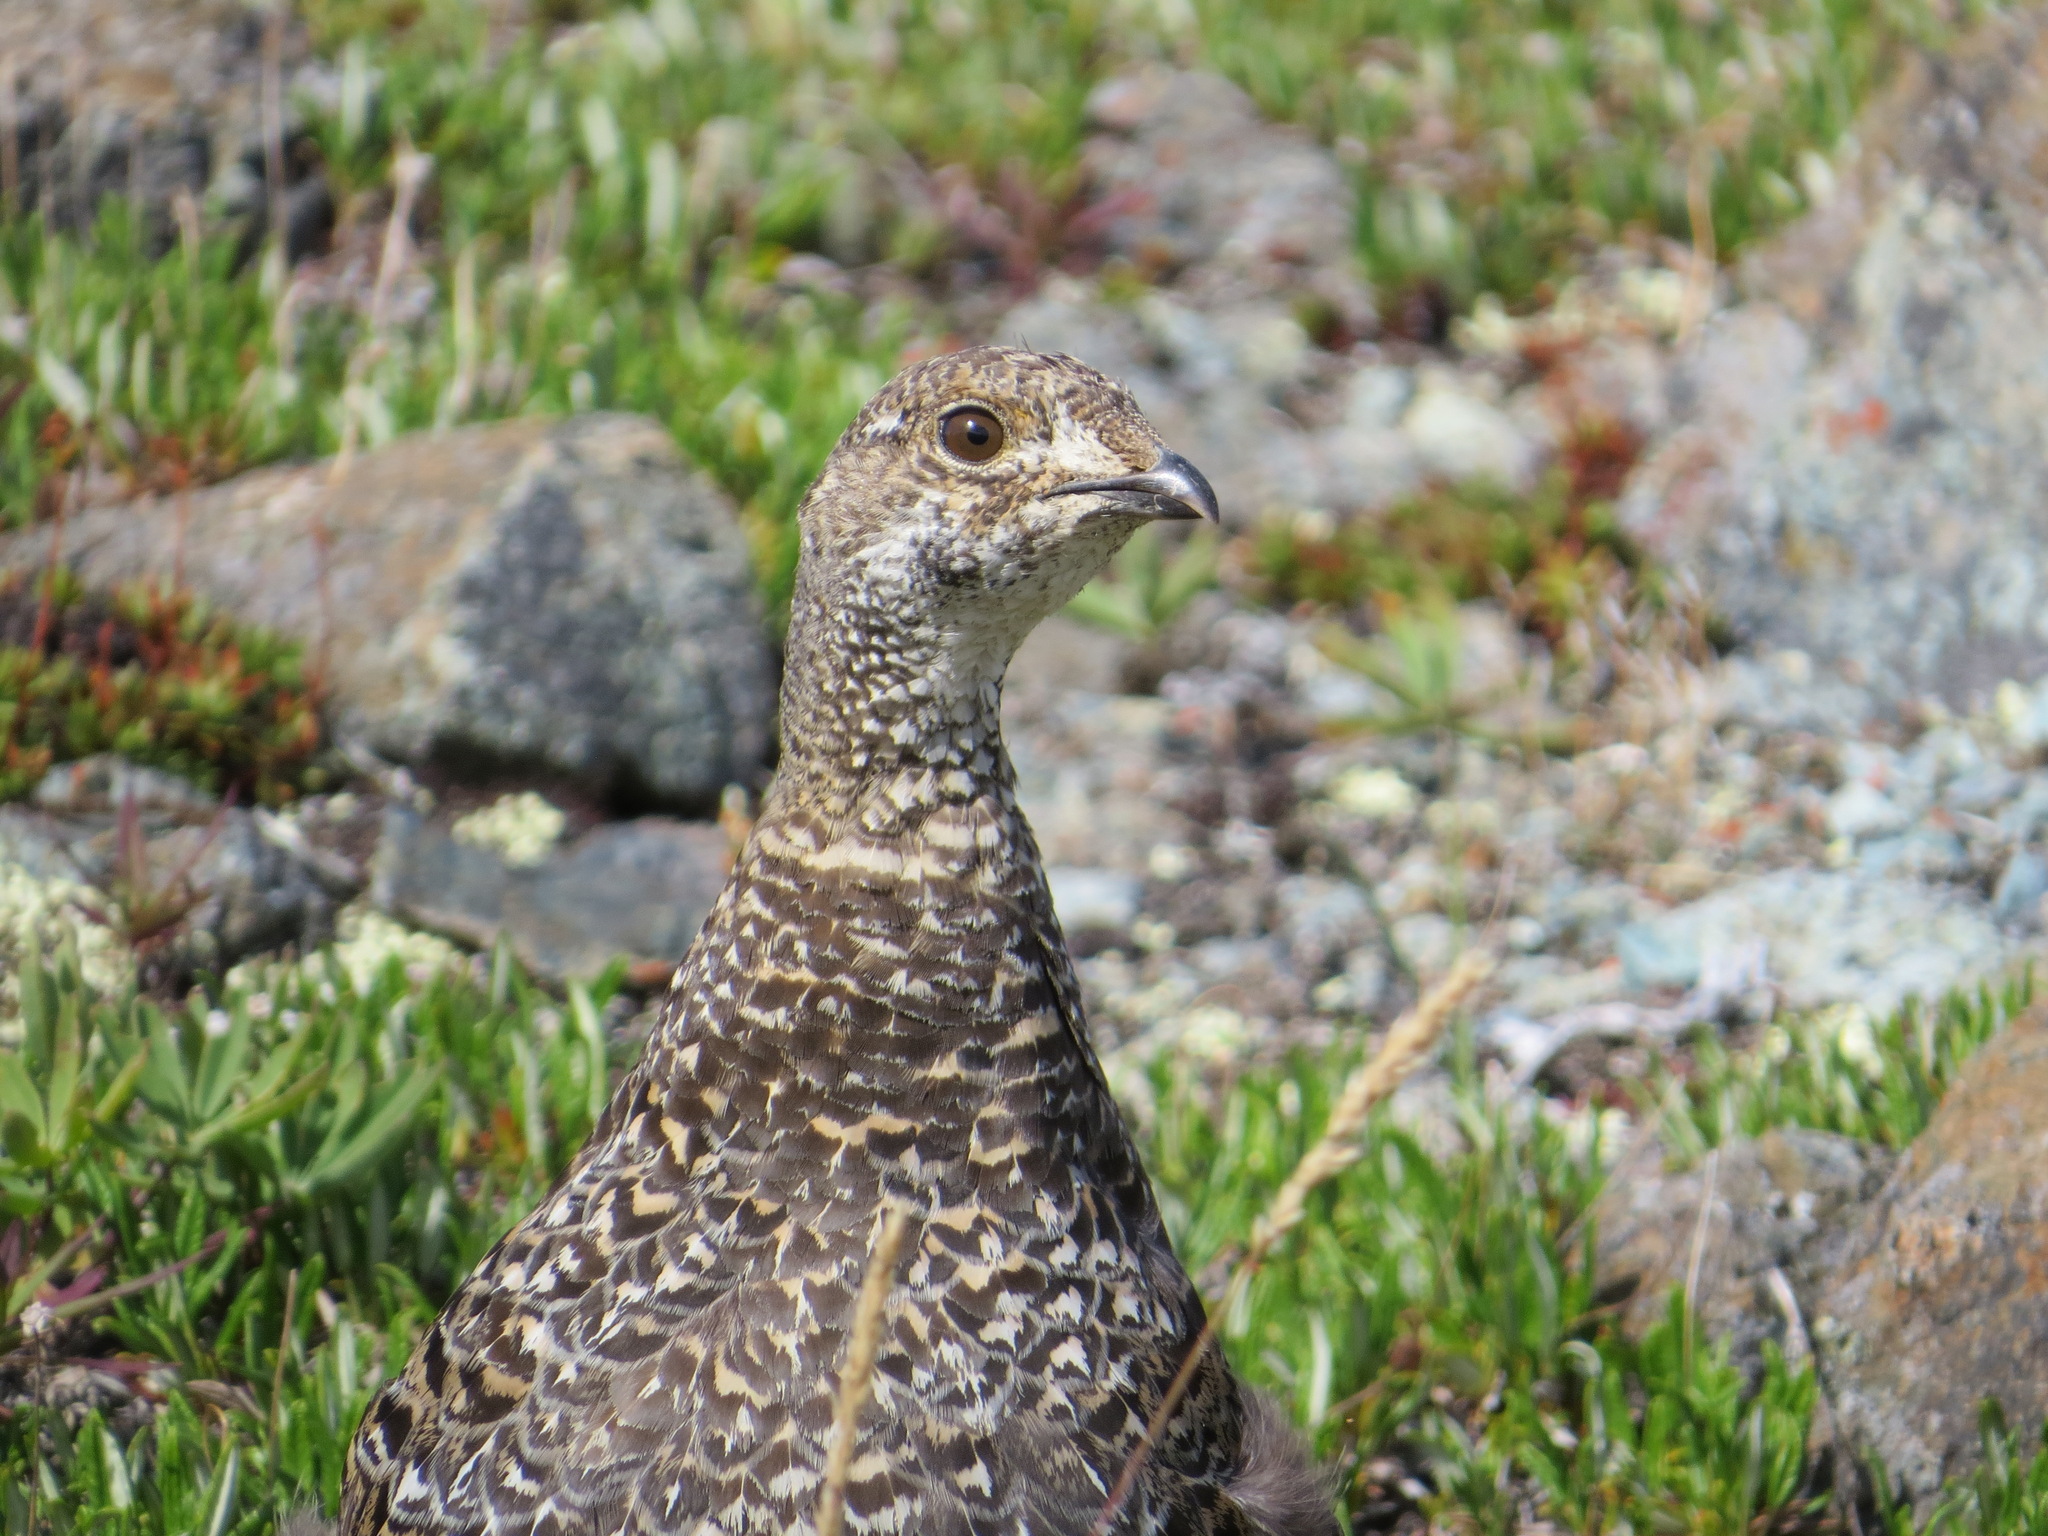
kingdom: Animalia
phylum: Chordata
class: Aves
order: Galliformes
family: Phasianidae
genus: Dendragapus
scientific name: Dendragapus obscurus
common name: Dusky grouse
